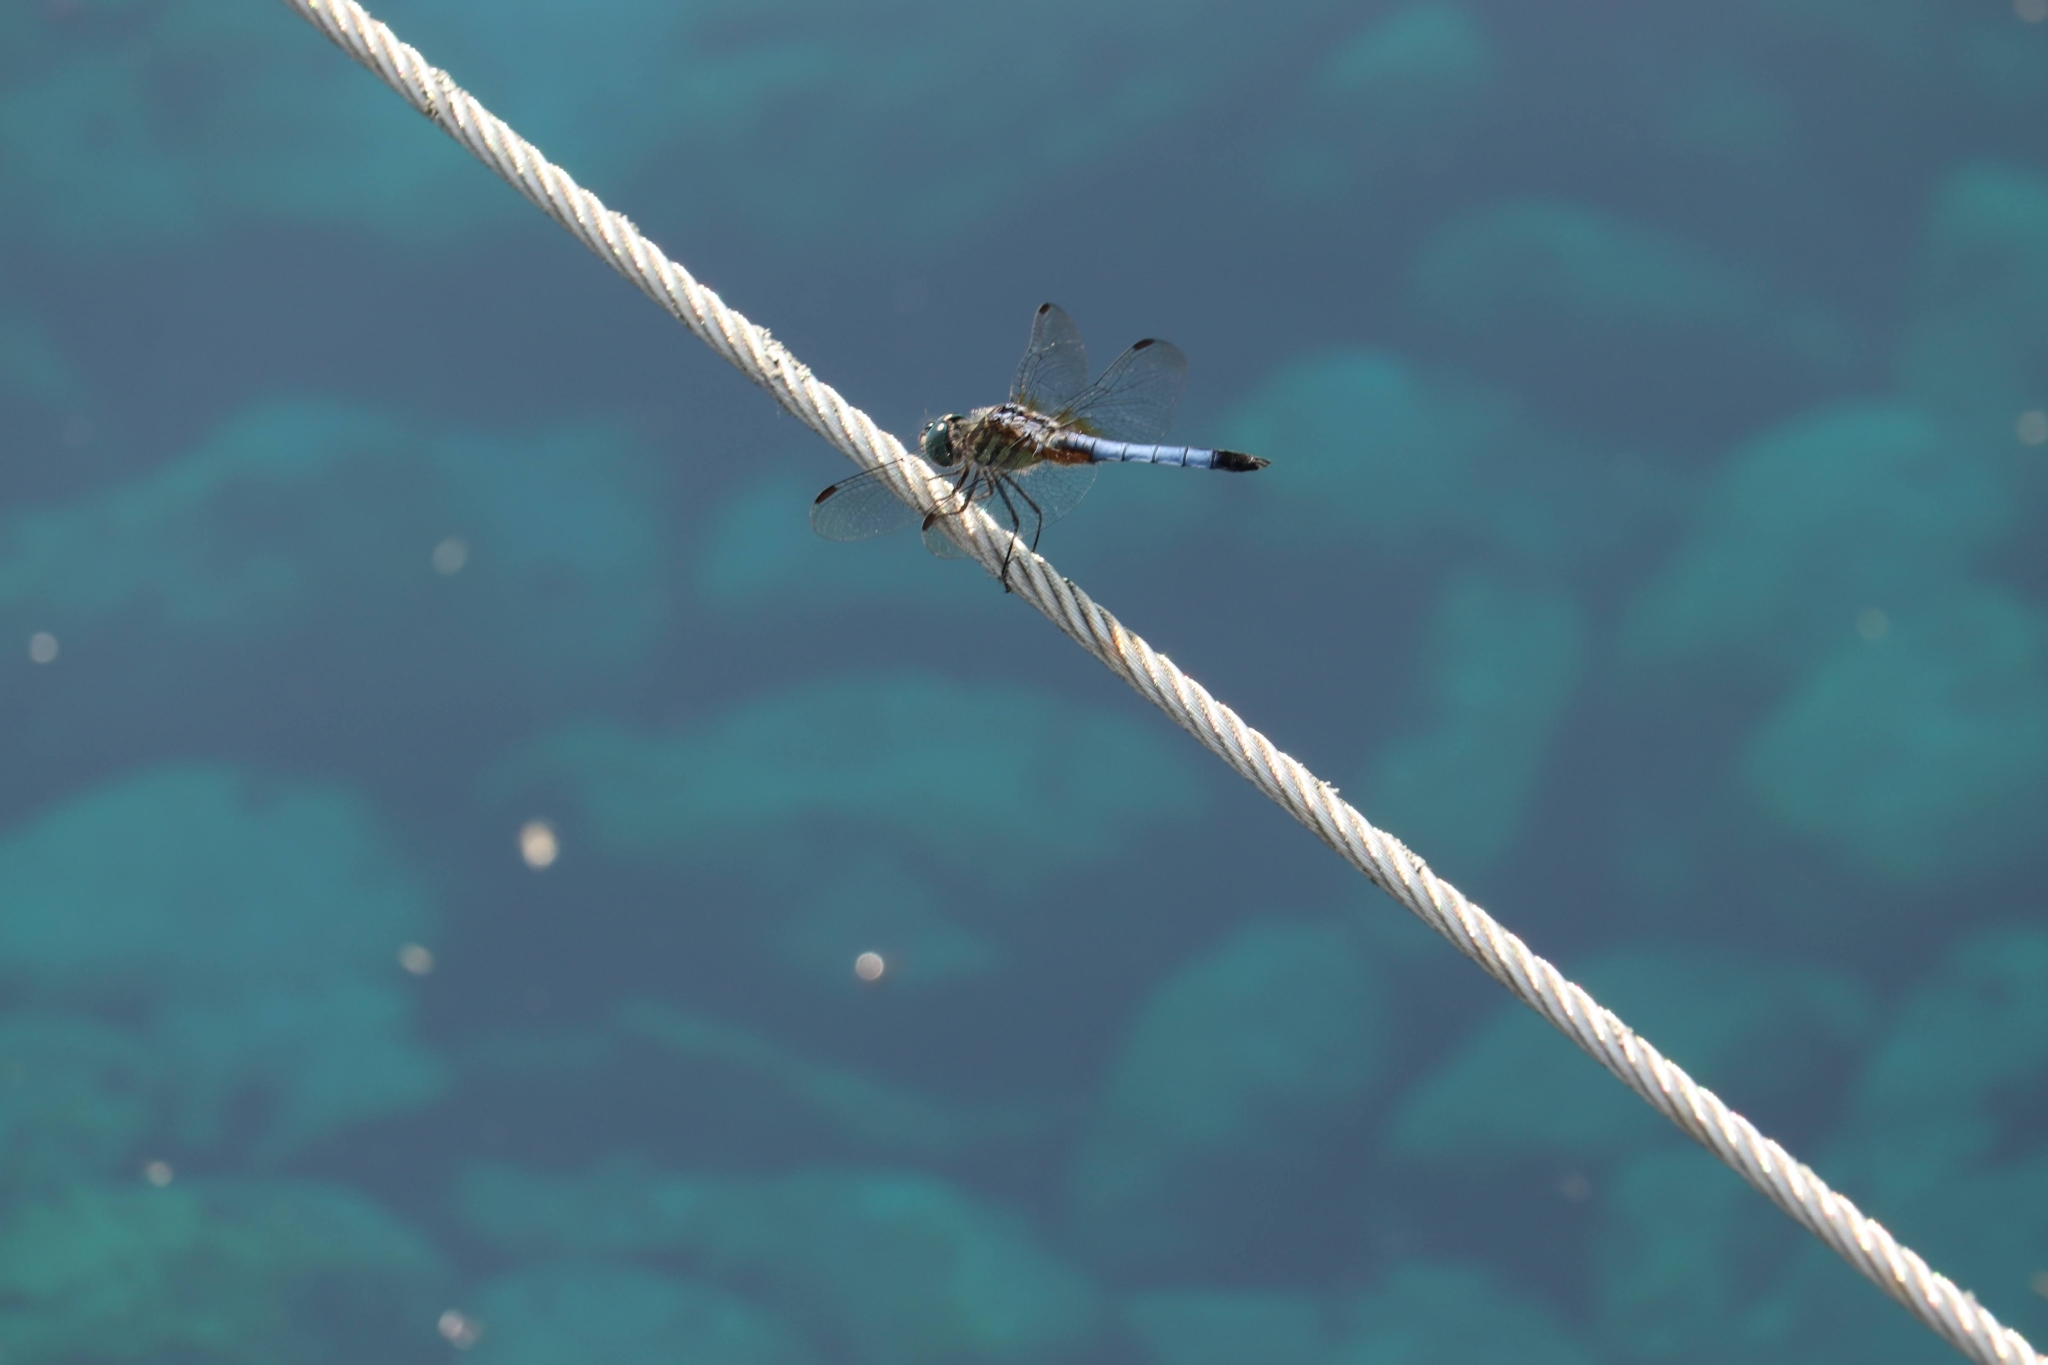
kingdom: Animalia
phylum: Arthropoda
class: Insecta
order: Odonata
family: Libellulidae
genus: Pachydiplax
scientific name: Pachydiplax longipennis
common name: Blue dasher
